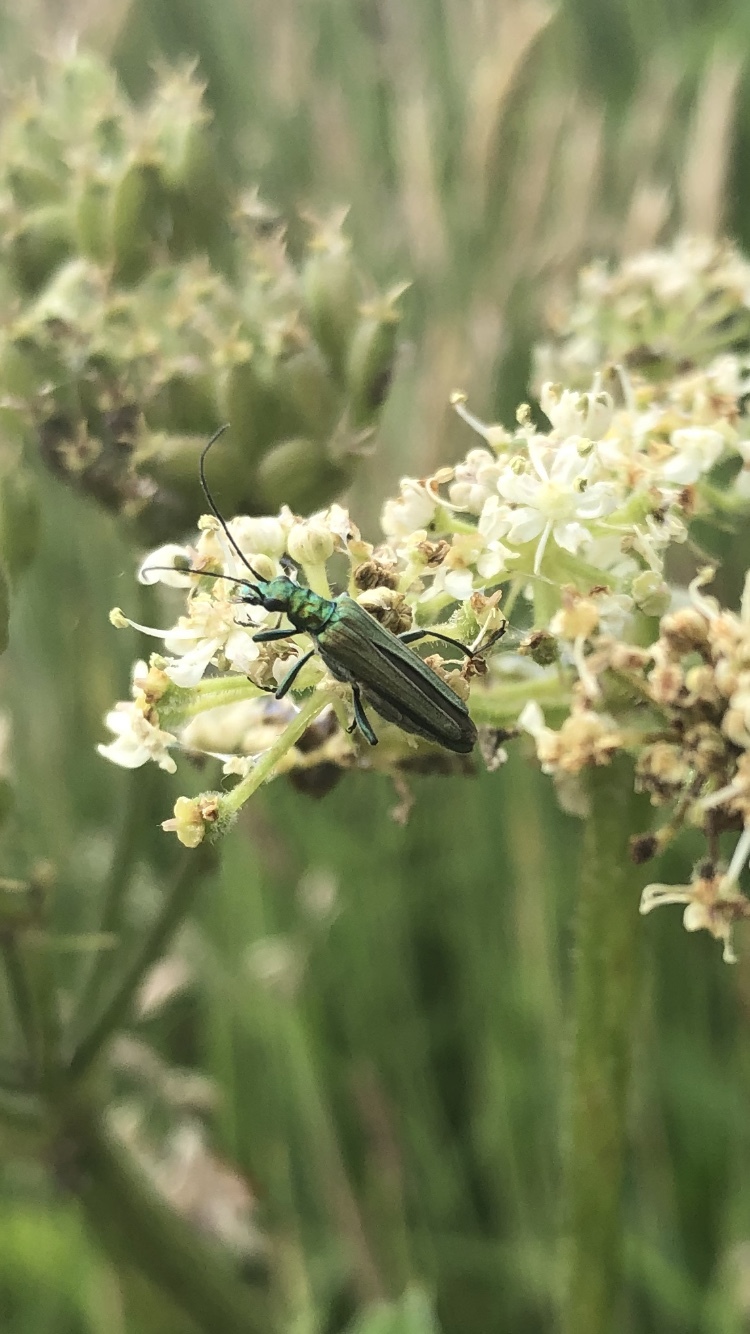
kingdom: Animalia
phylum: Arthropoda
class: Insecta
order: Coleoptera
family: Oedemeridae
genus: Oedemera
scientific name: Oedemera nobilis
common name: Swollen-thighed beetle
